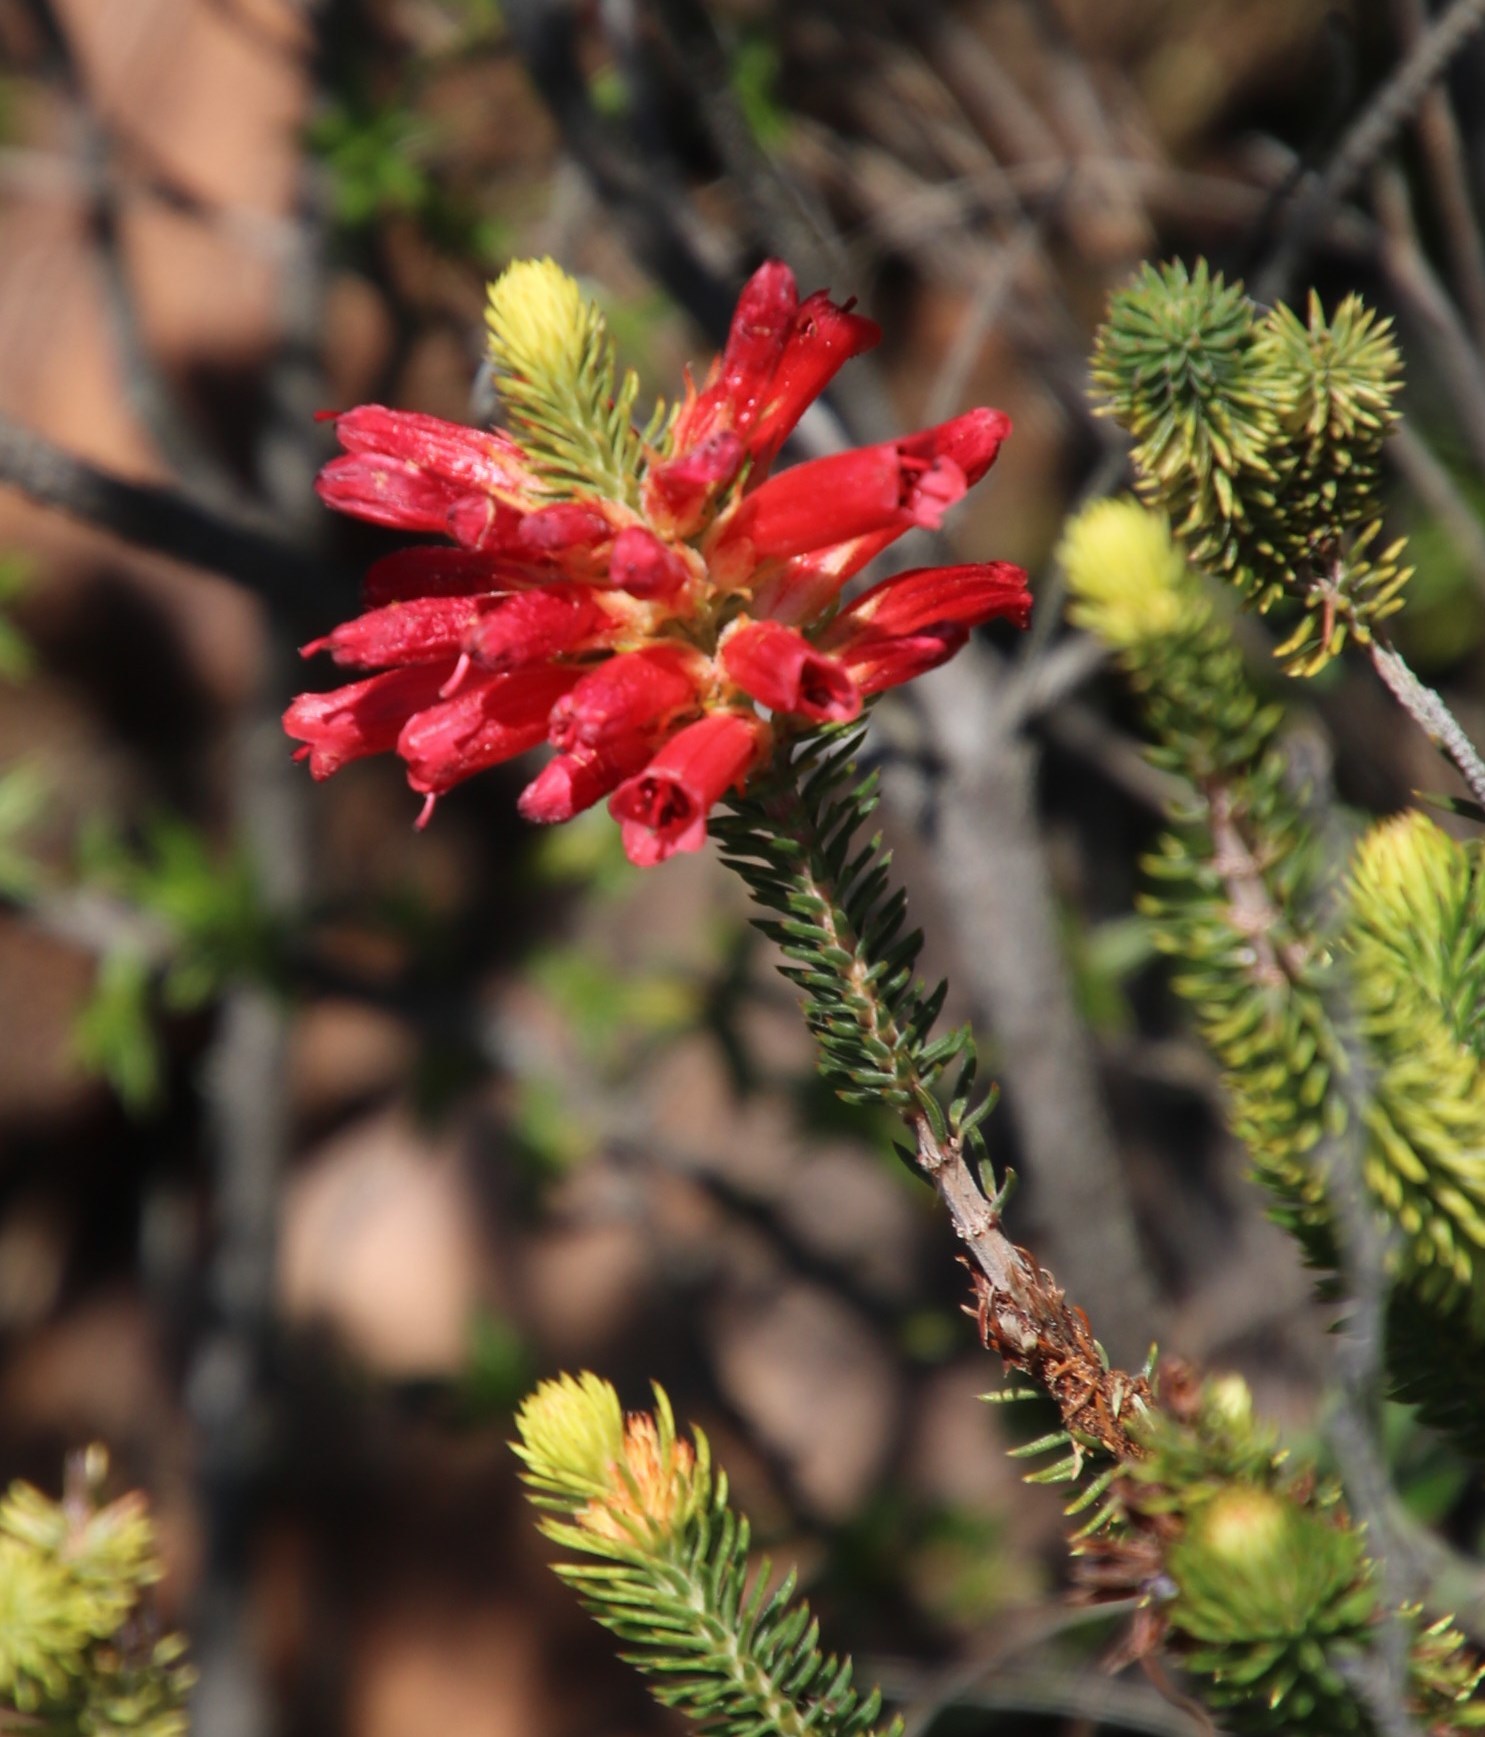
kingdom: Plantae
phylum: Tracheophyta
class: Magnoliopsida
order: Ericales
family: Ericaceae
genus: Erica
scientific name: Erica abietina
